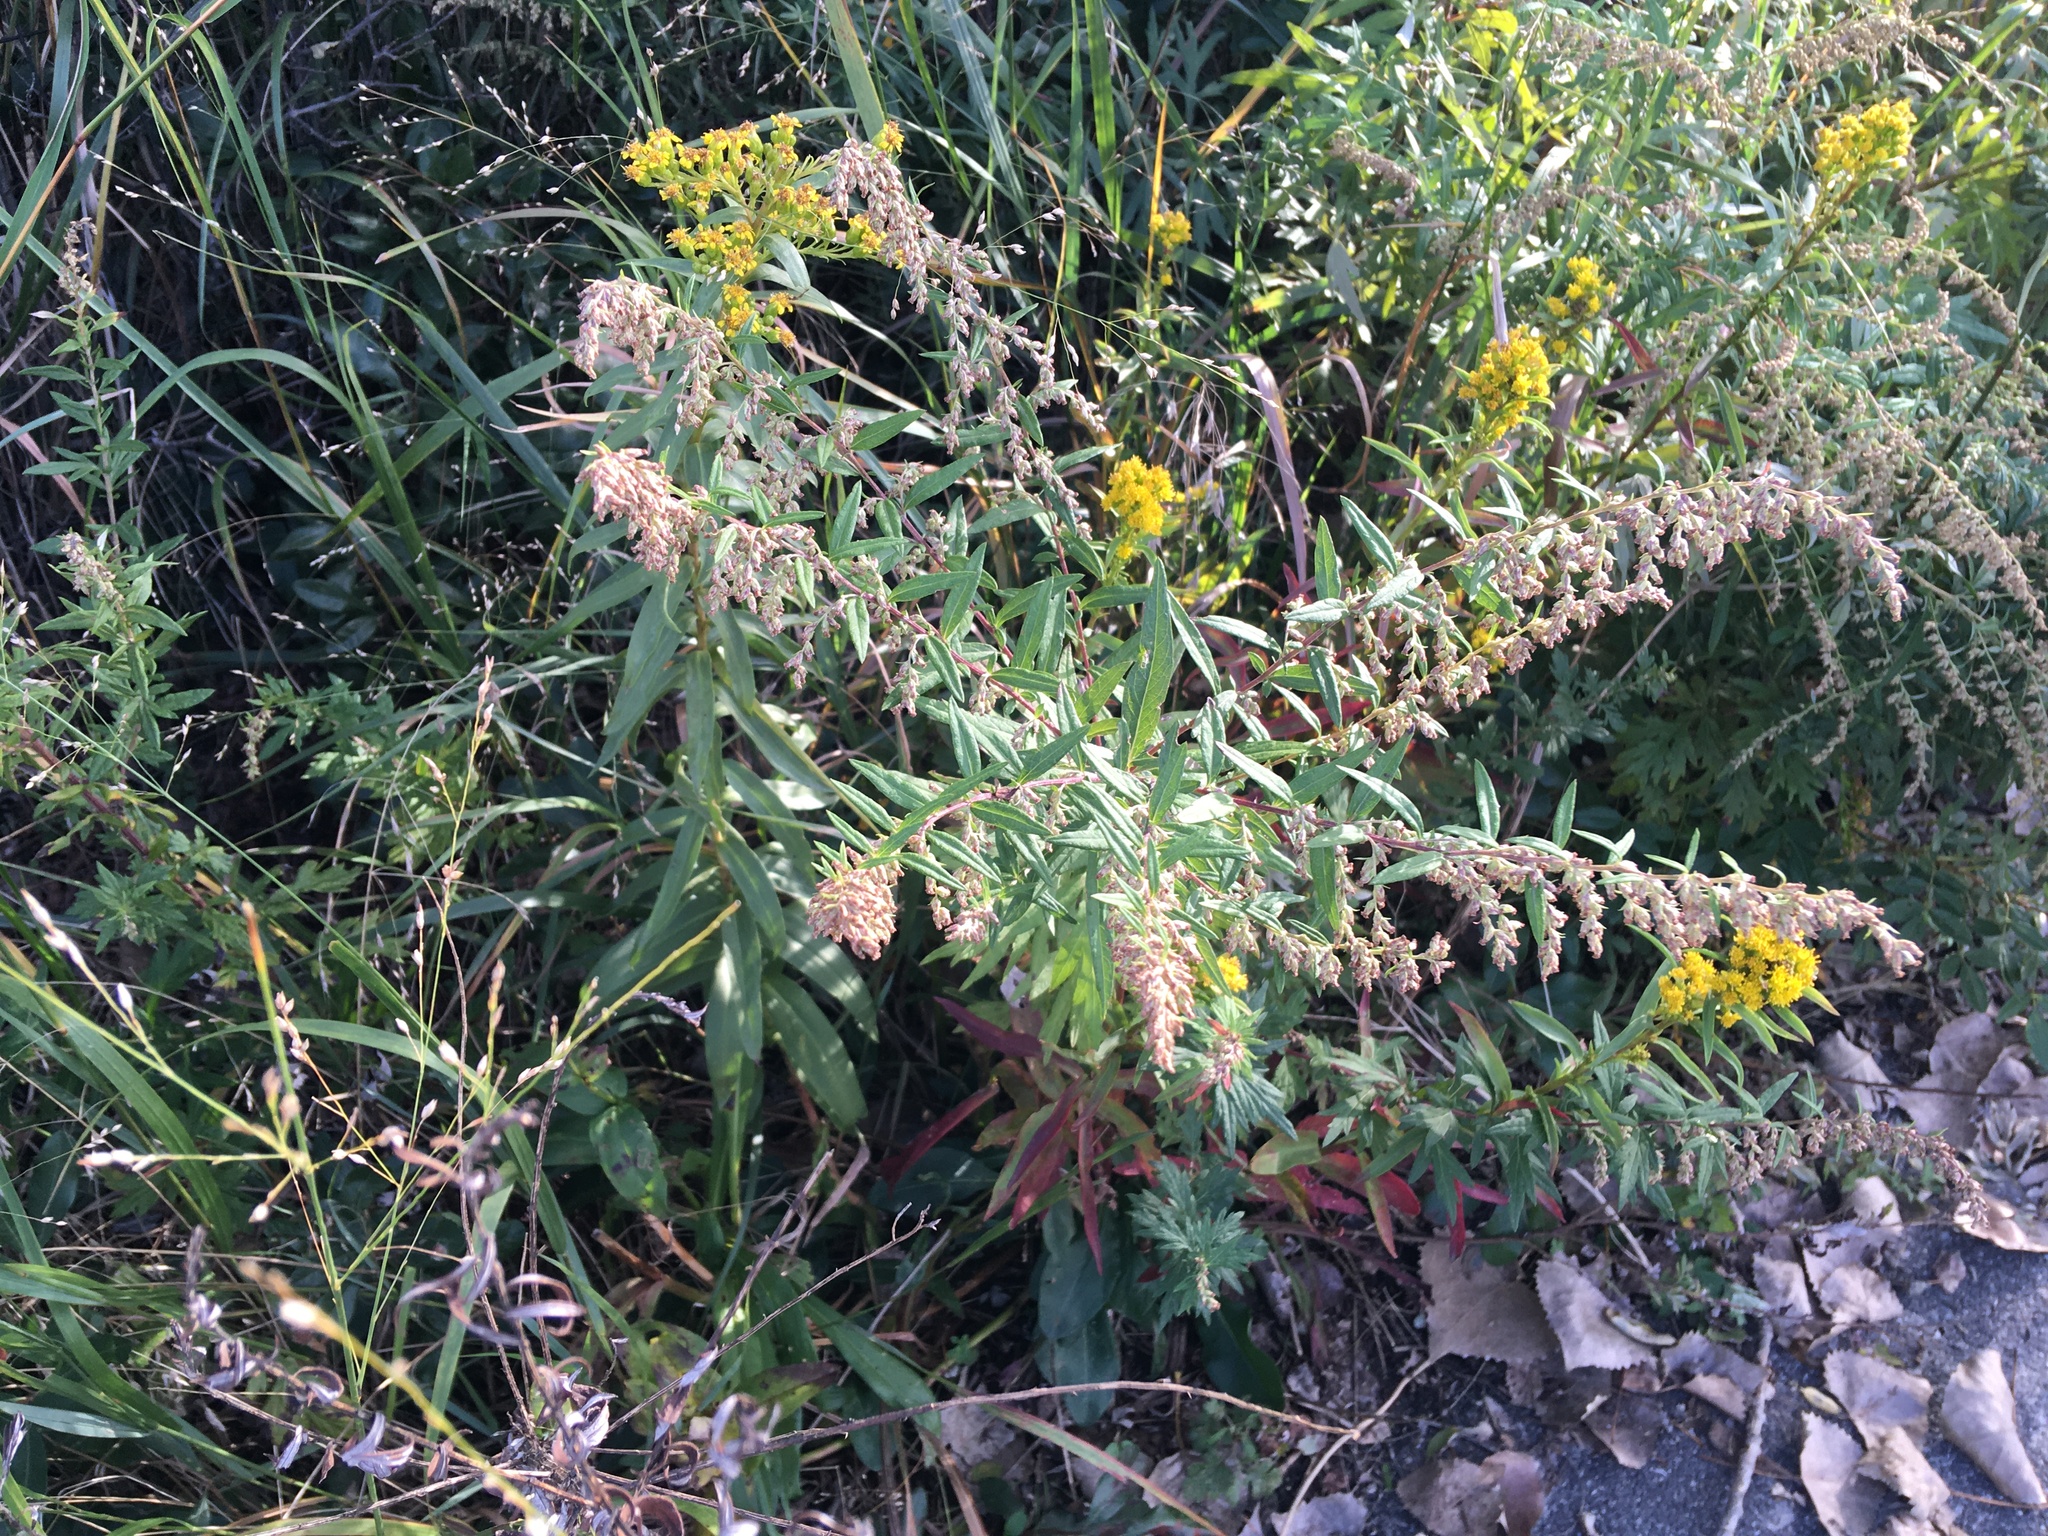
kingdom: Plantae
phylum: Tracheophyta
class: Magnoliopsida
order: Asterales
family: Asteraceae
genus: Artemisia
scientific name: Artemisia vulgaris
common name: Mugwort
